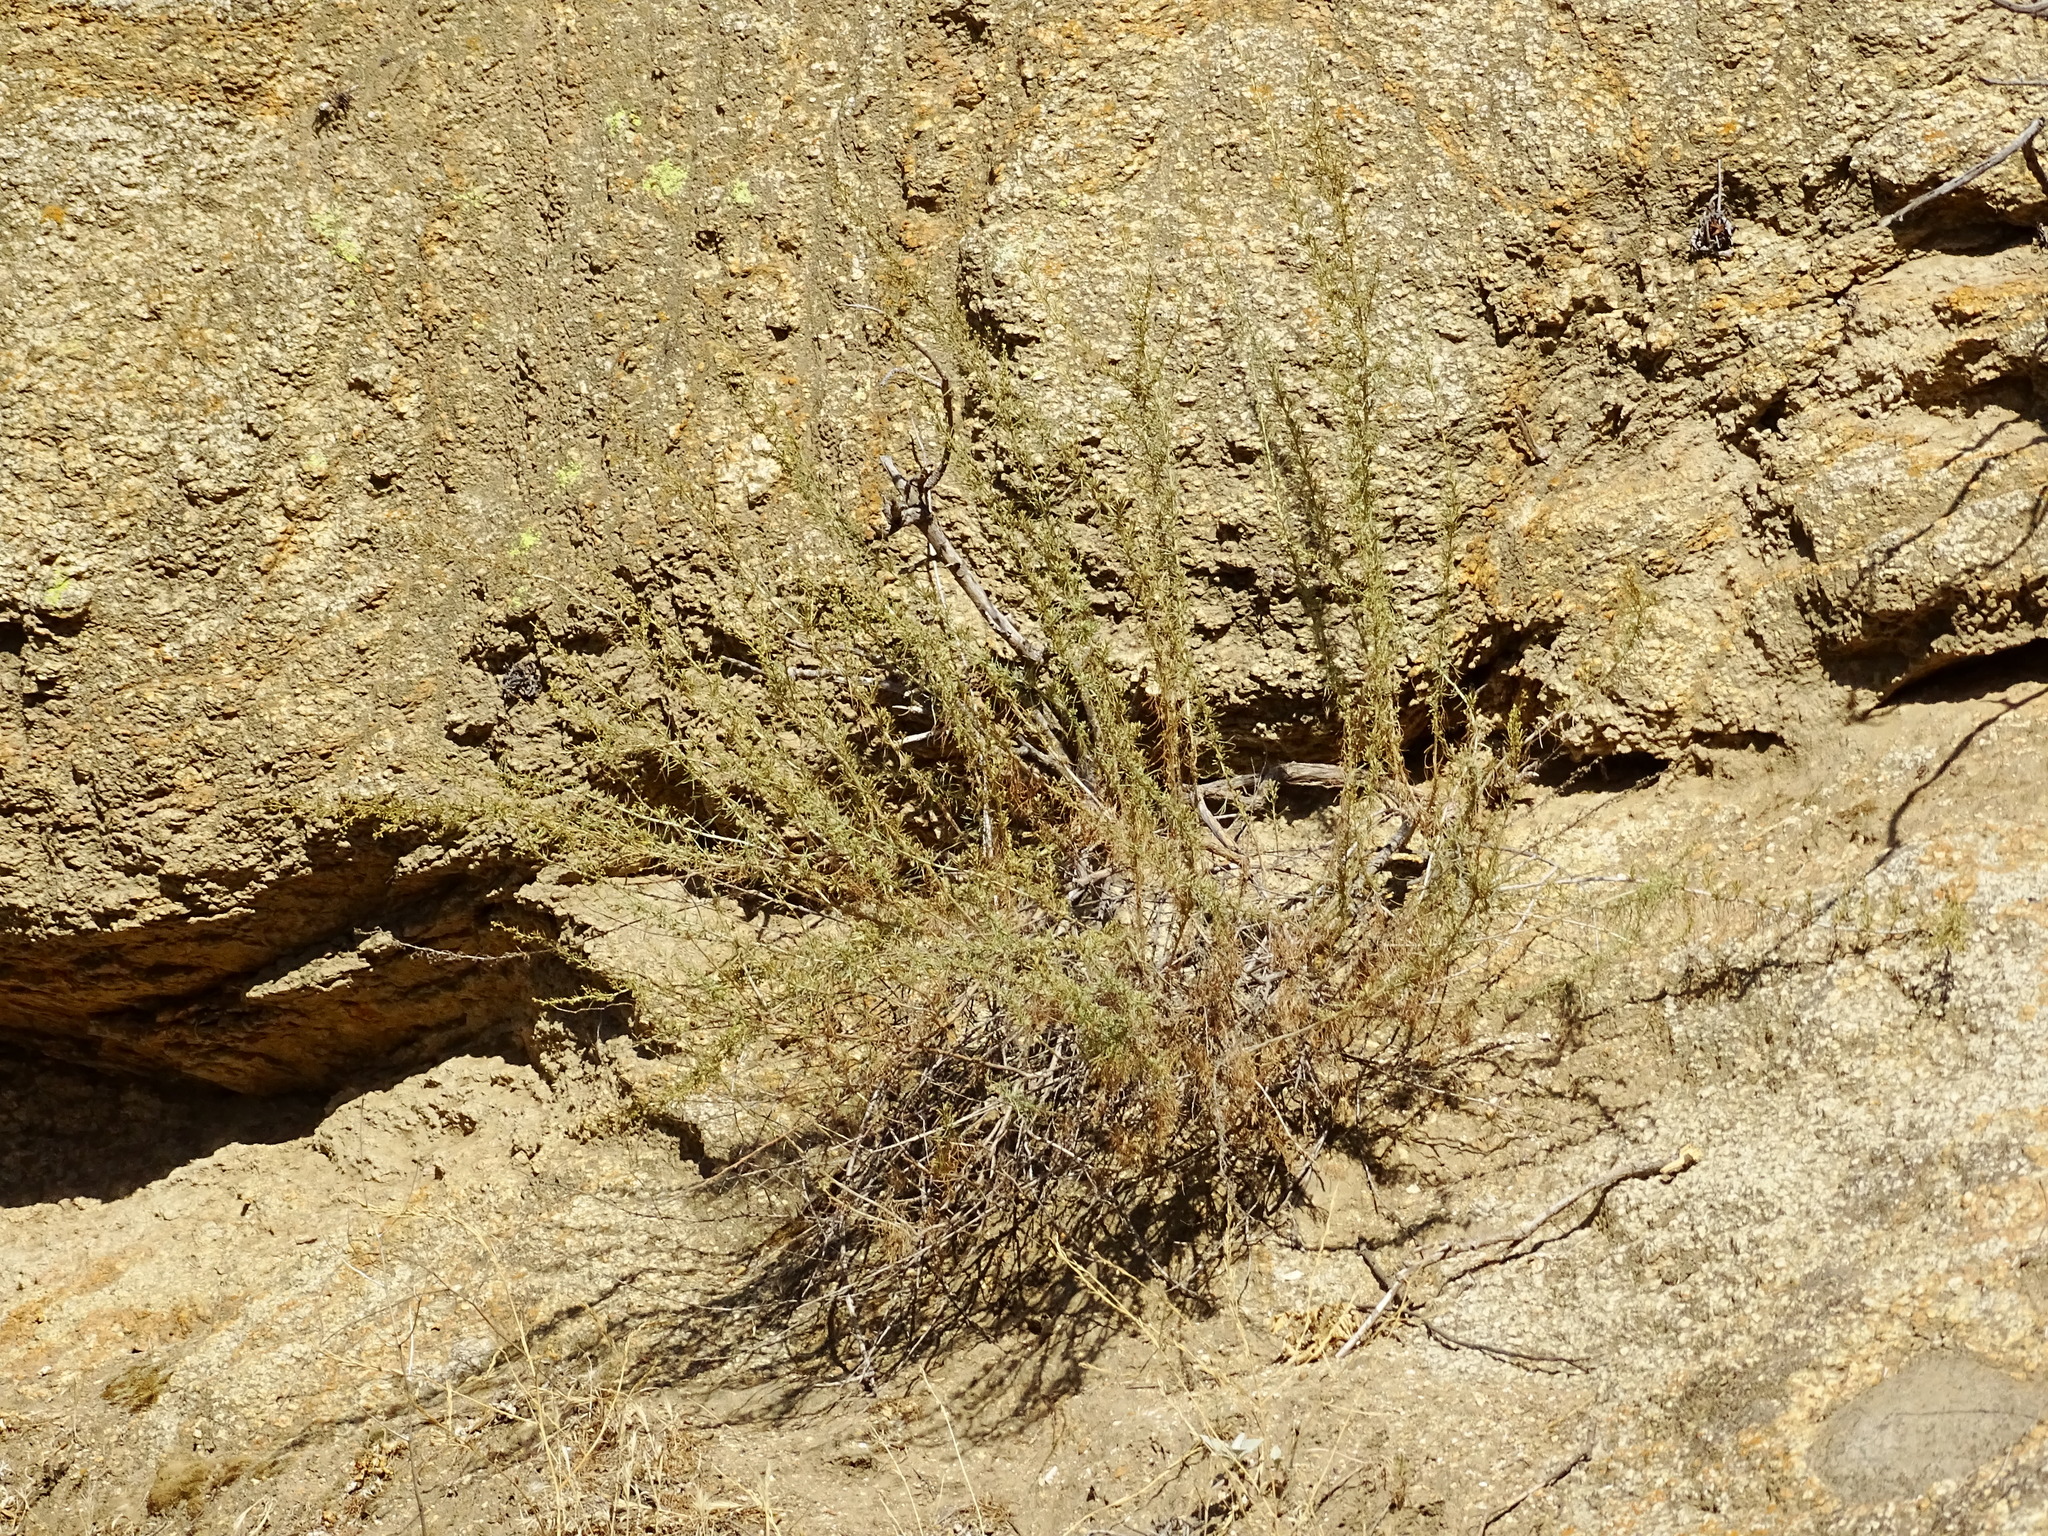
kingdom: Plantae
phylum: Tracheophyta
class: Magnoliopsida
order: Asterales
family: Asteraceae
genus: Artemisia
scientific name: Artemisia californica
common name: California sagebrush
